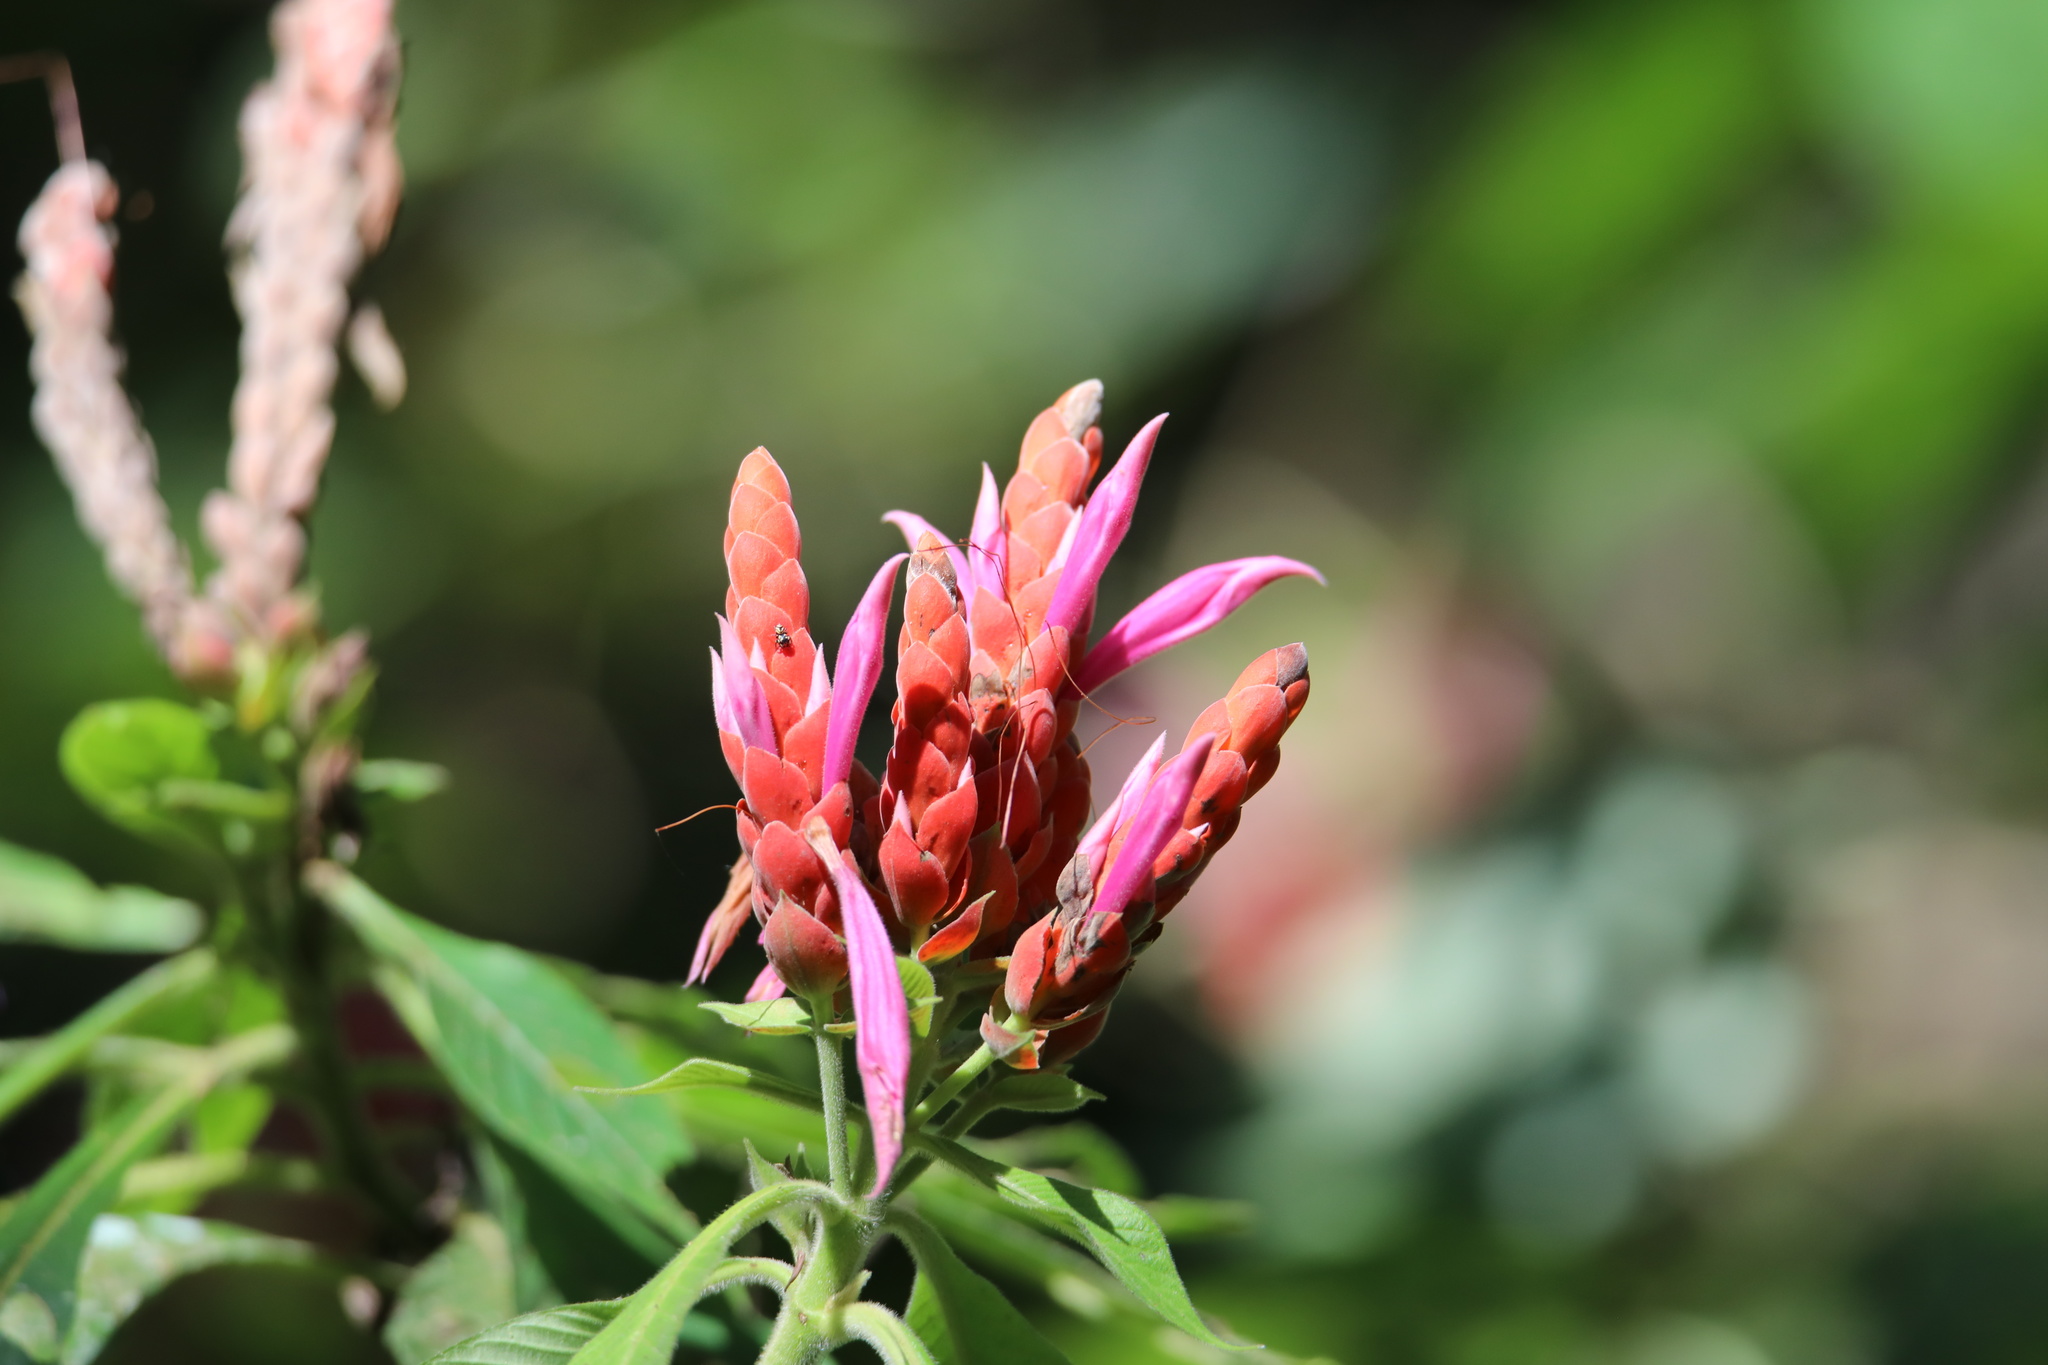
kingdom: Plantae
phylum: Tracheophyta
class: Magnoliopsida
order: Lamiales
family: Acanthaceae
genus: Aphelandra
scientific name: Aphelandra sinclairiana
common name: Coral aphelandra
